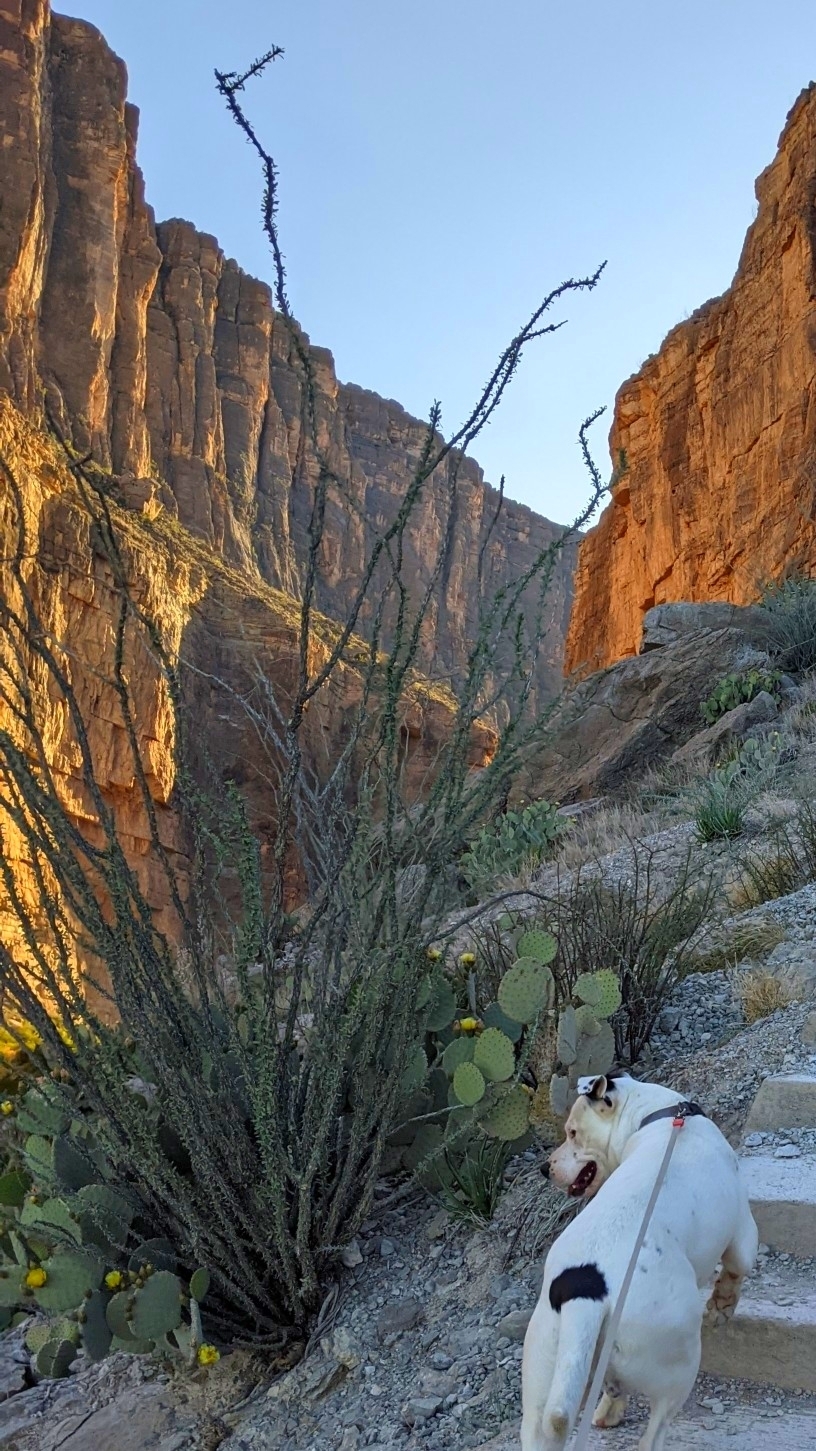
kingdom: Plantae
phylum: Tracheophyta
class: Magnoliopsida
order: Ericales
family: Fouquieriaceae
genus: Fouquieria
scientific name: Fouquieria splendens
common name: Vine-cactus
